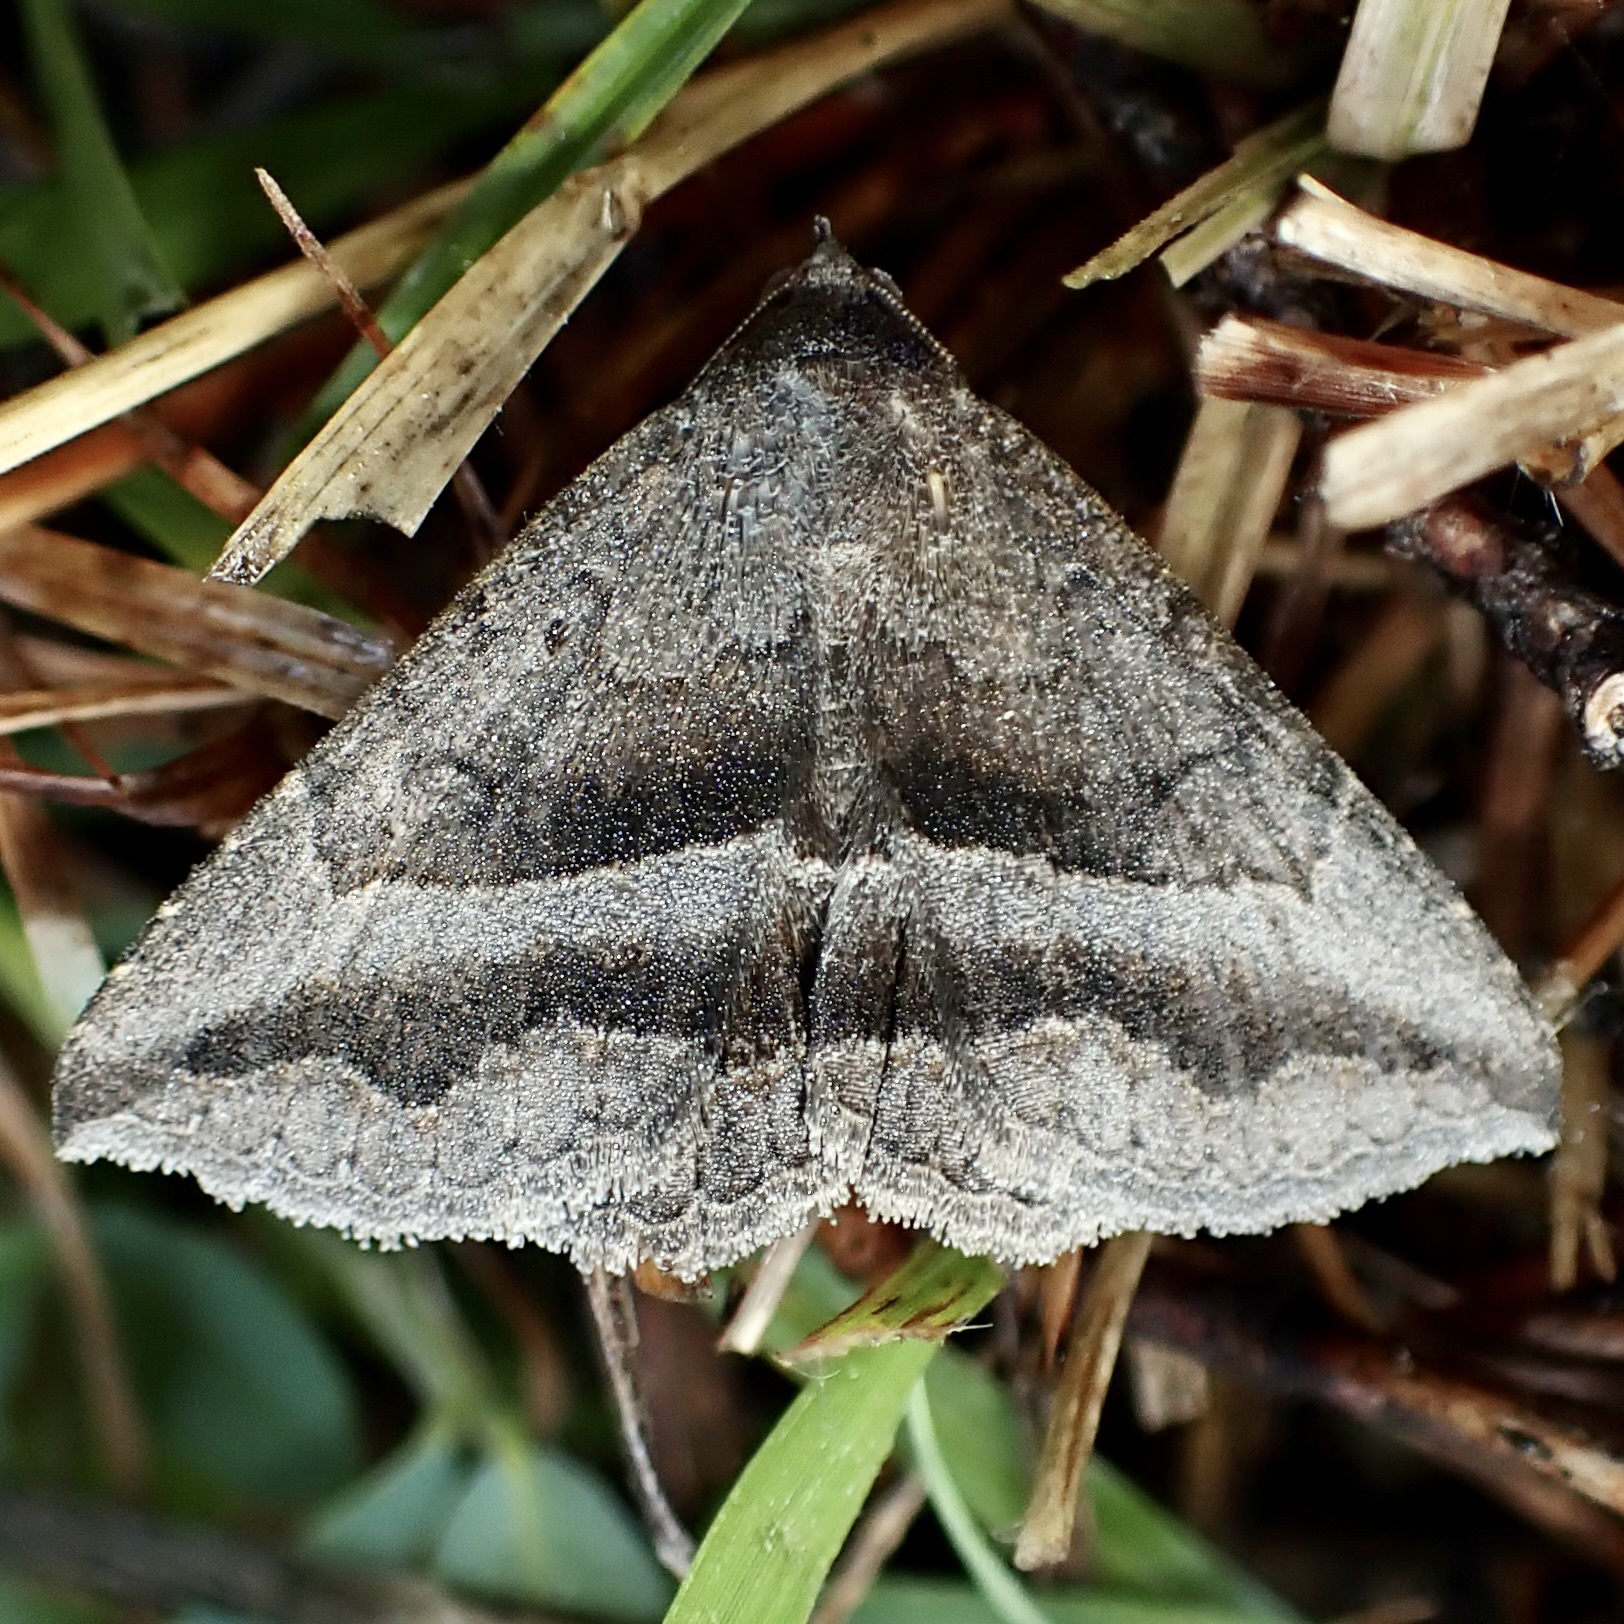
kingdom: Animalia
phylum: Arthropoda
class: Insecta
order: Lepidoptera
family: Erebidae
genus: Lesmone
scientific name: Lesmone griseipennis
